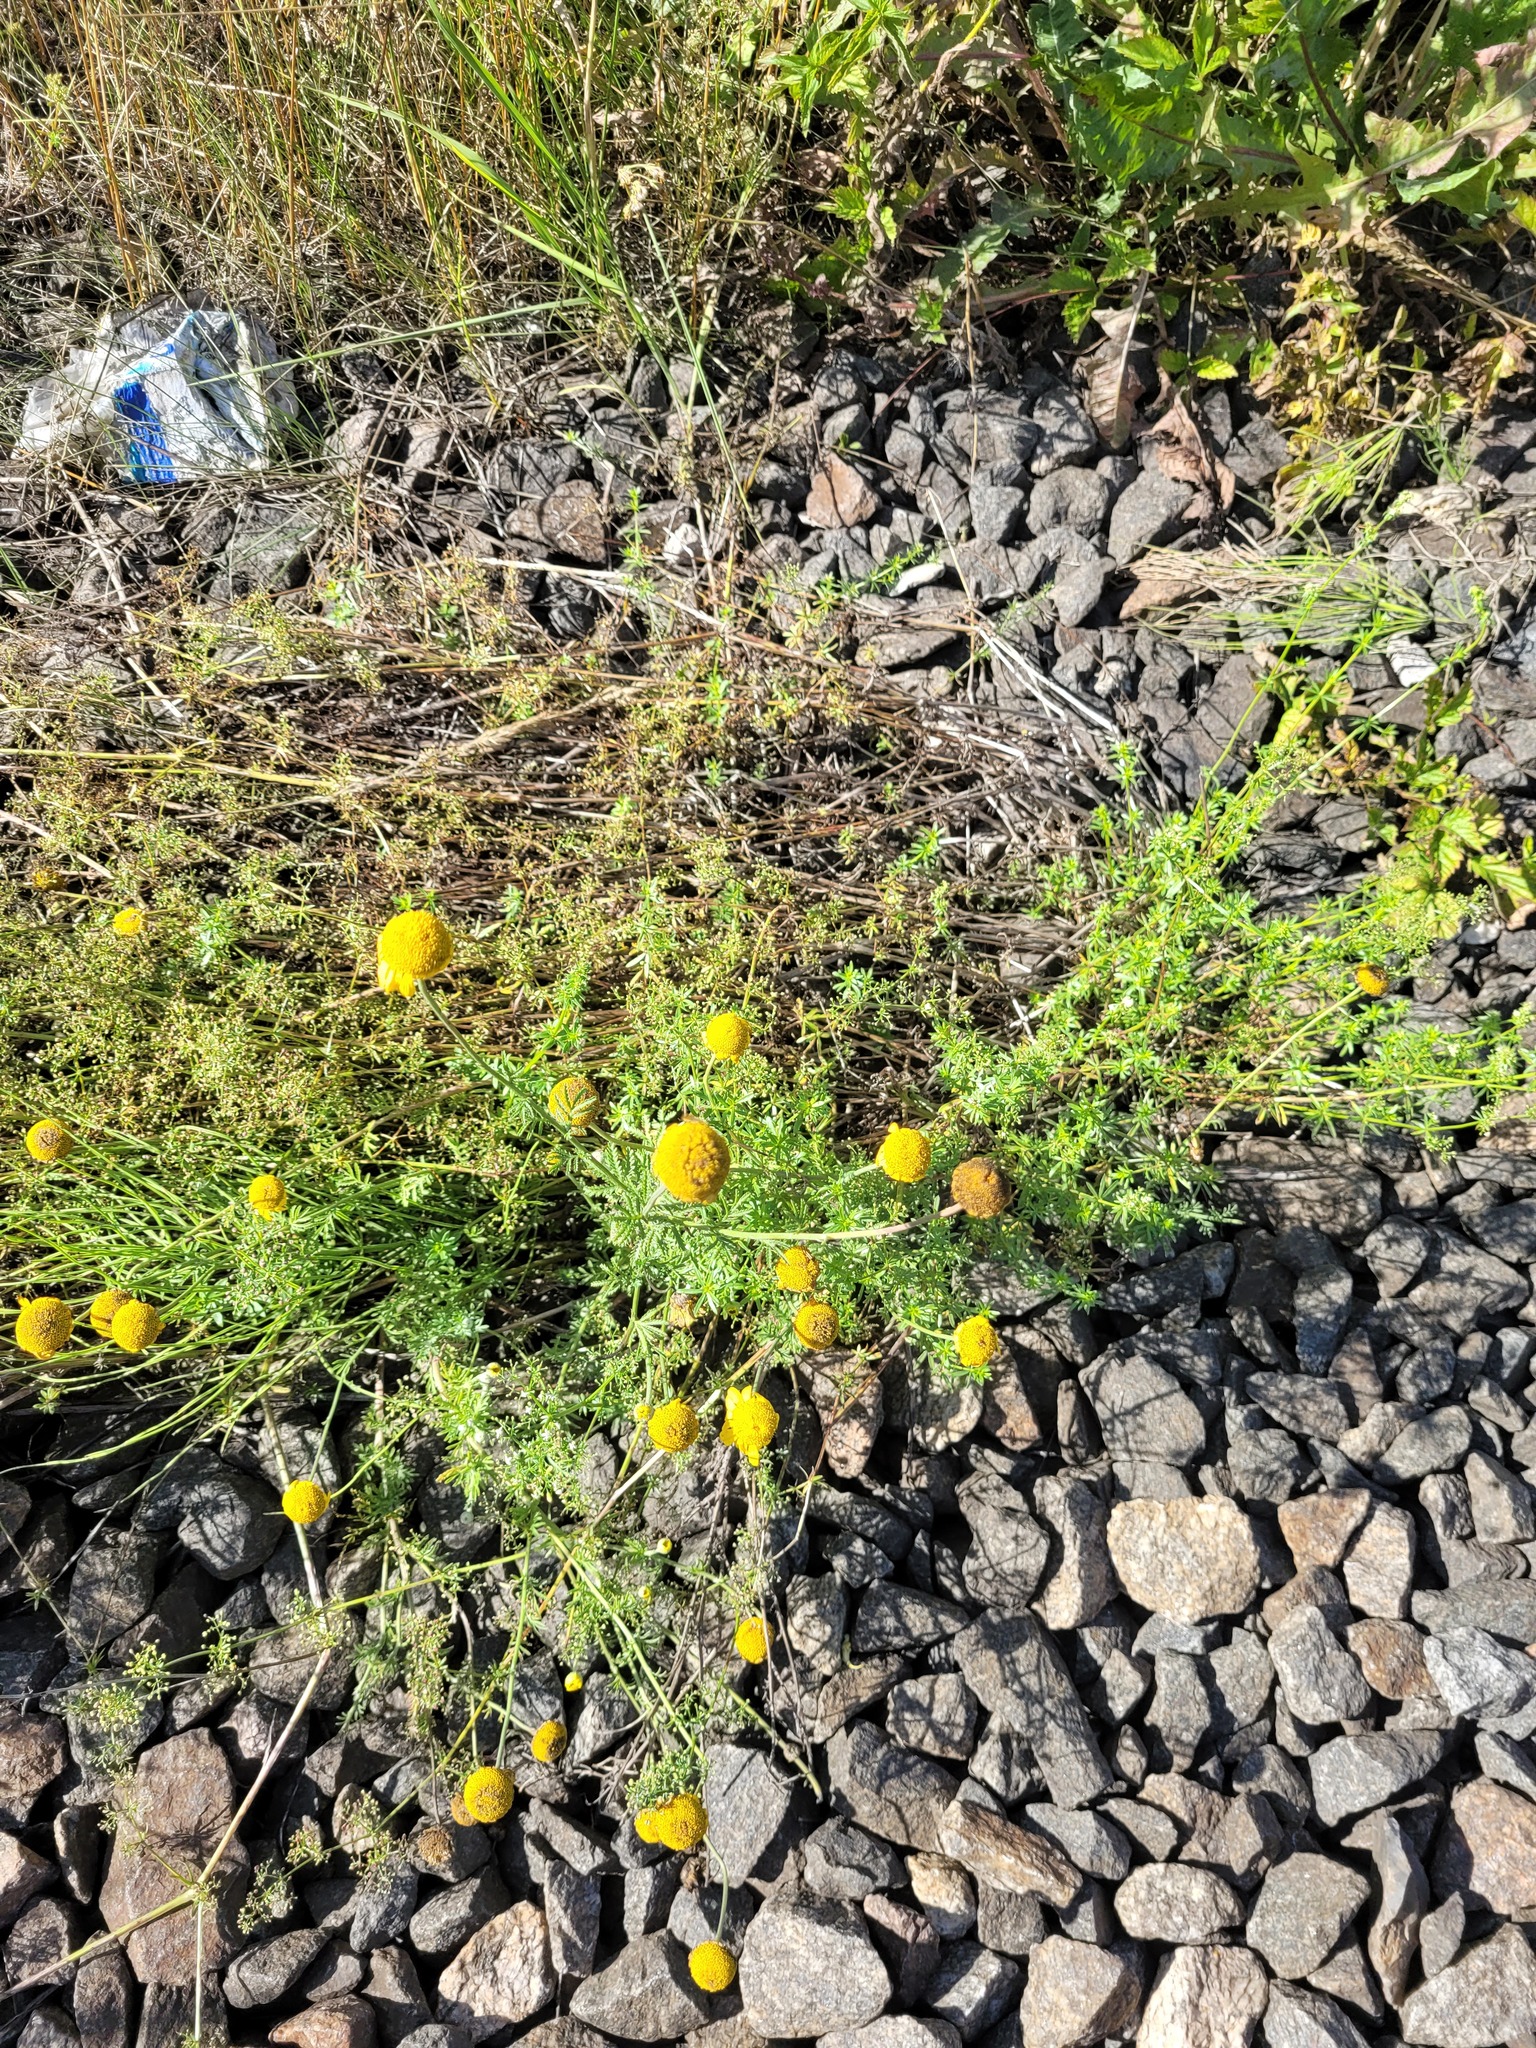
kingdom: Plantae
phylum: Tracheophyta
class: Magnoliopsida
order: Asterales
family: Asteraceae
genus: Cota
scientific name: Cota tinctoria
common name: Golden chamomile
